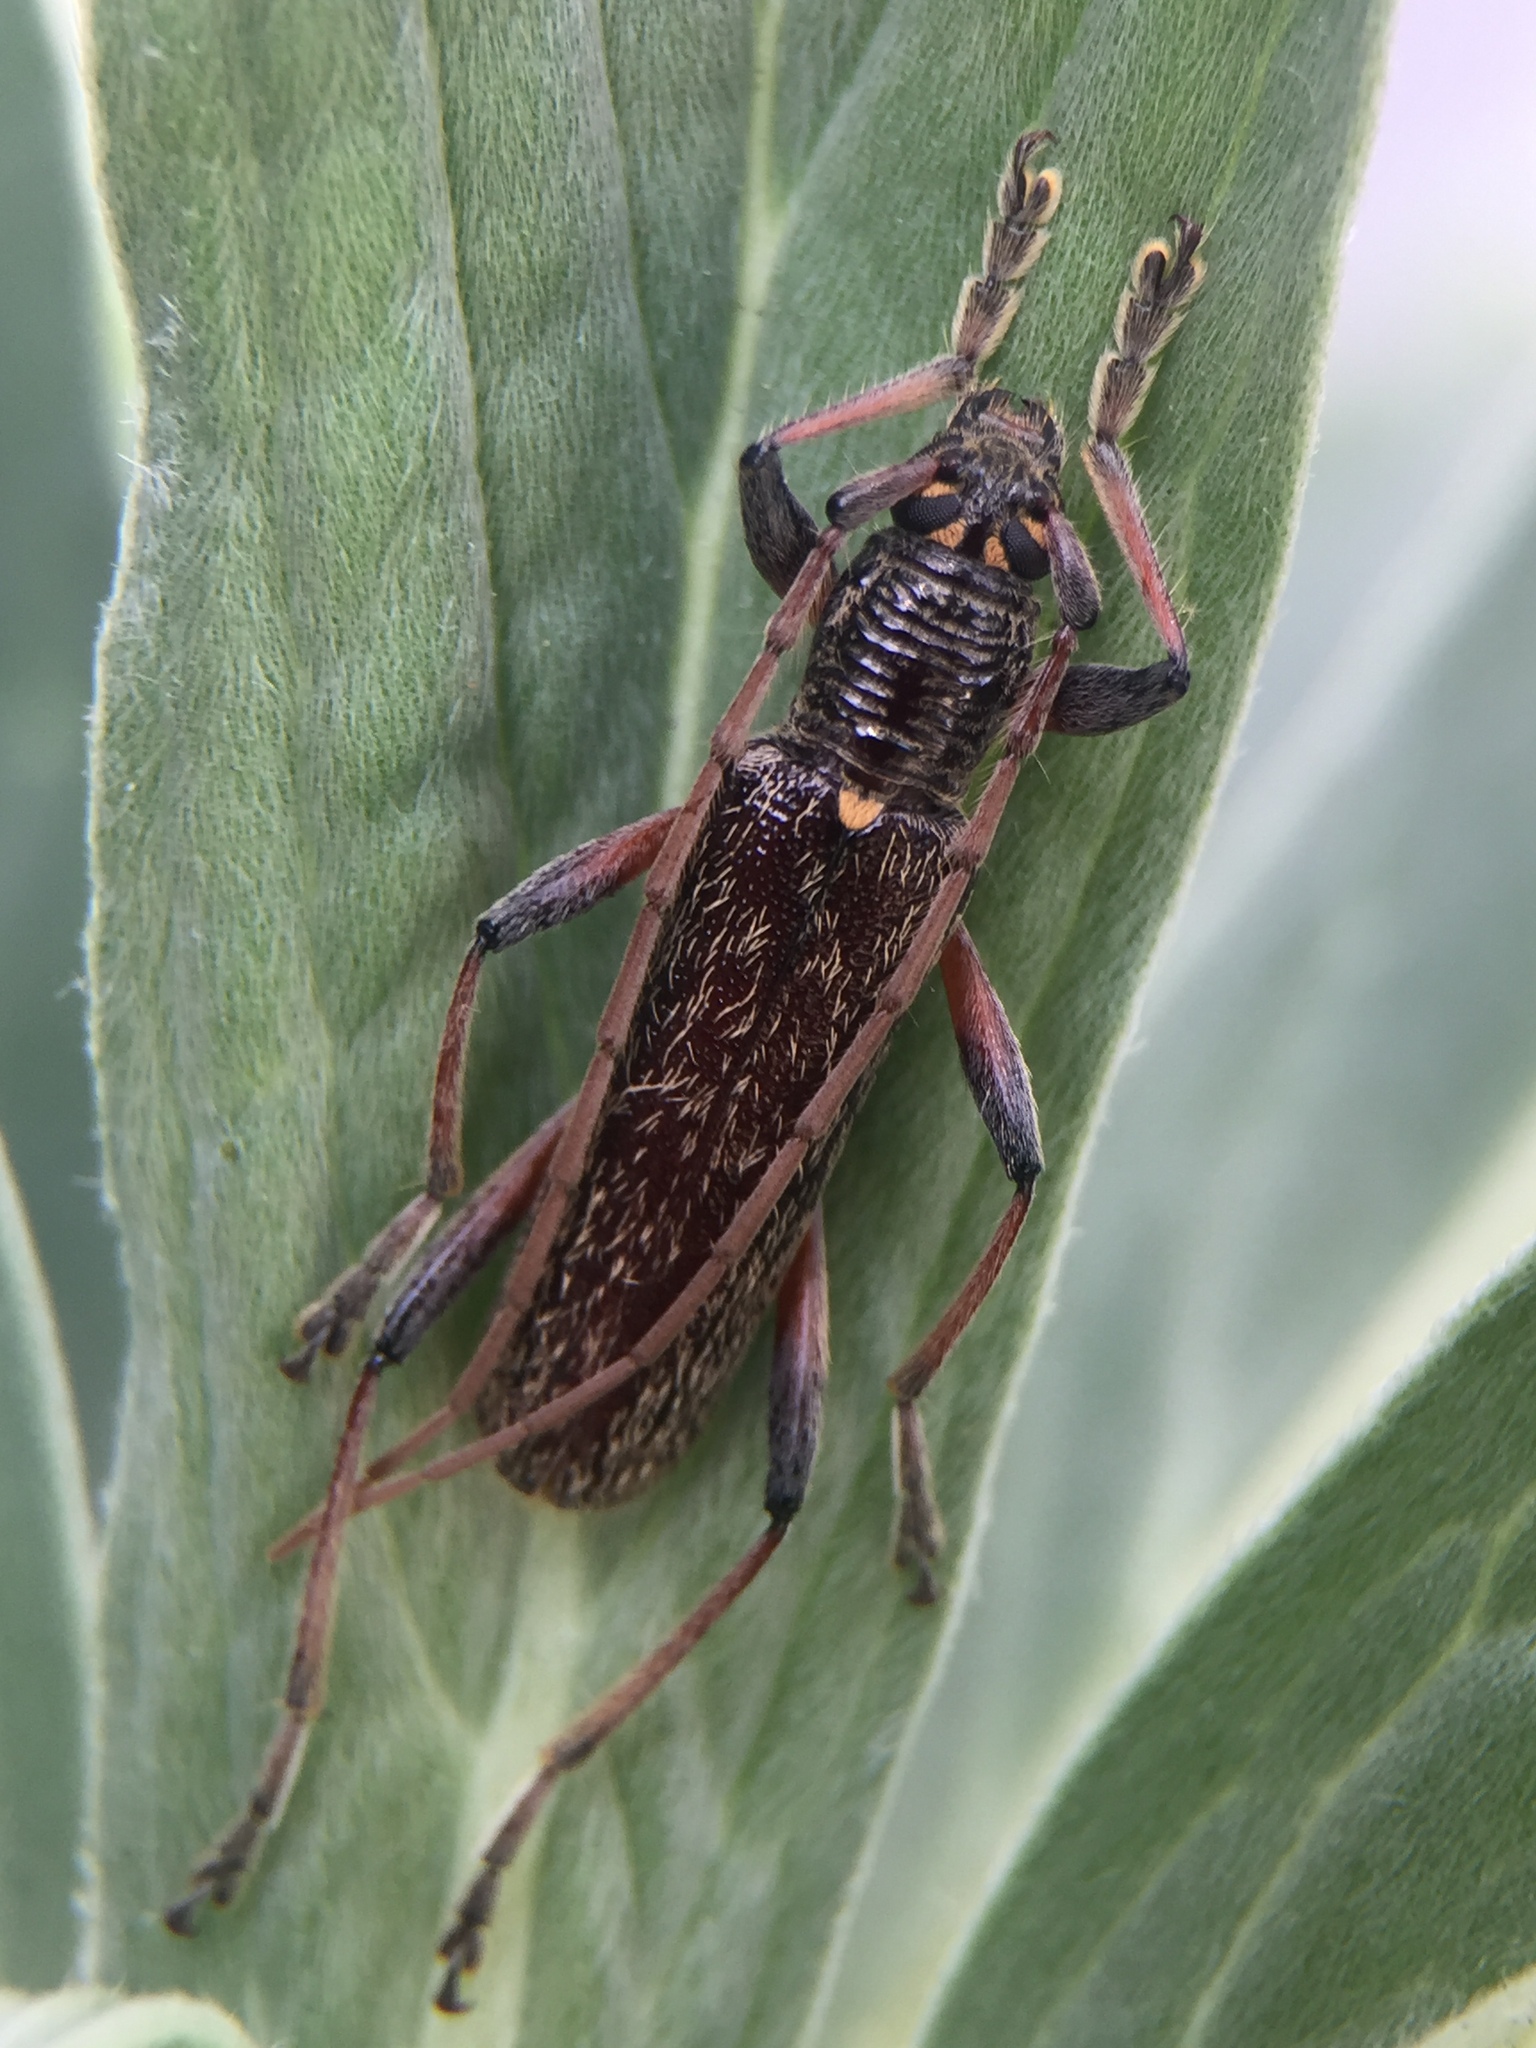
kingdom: Animalia
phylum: Arthropoda
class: Insecta
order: Coleoptera
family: Cerambycidae
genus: Oemona
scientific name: Oemona hirta
